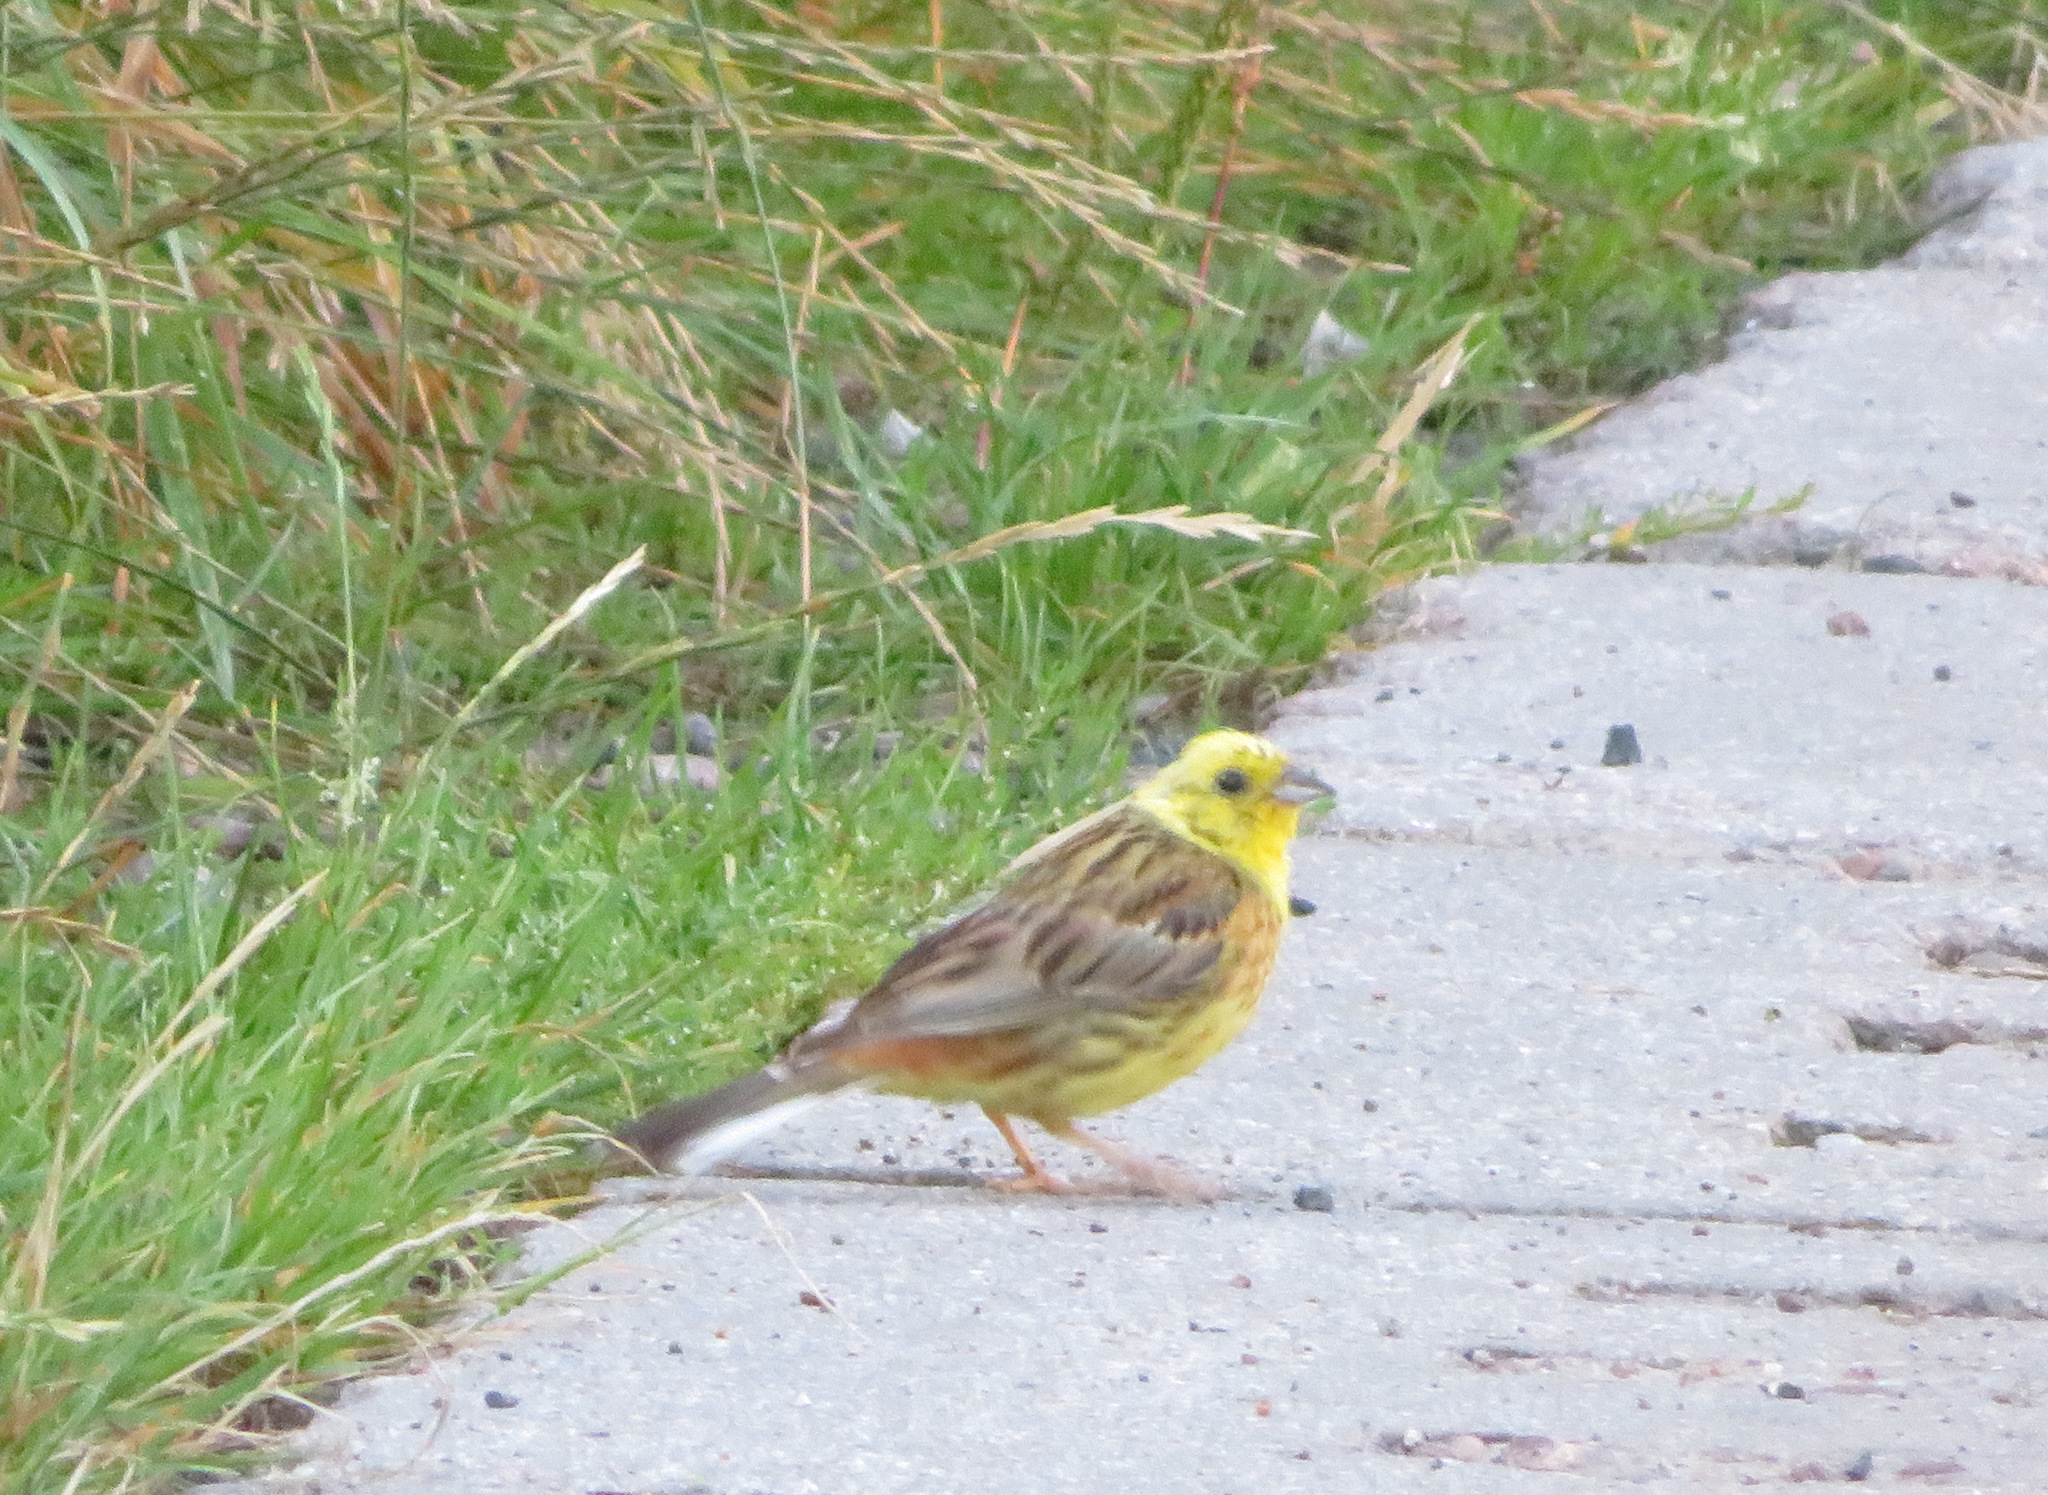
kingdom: Animalia
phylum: Chordata
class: Aves
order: Passeriformes
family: Emberizidae
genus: Emberiza
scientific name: Emberiza citrinella
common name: Yellowhammer
